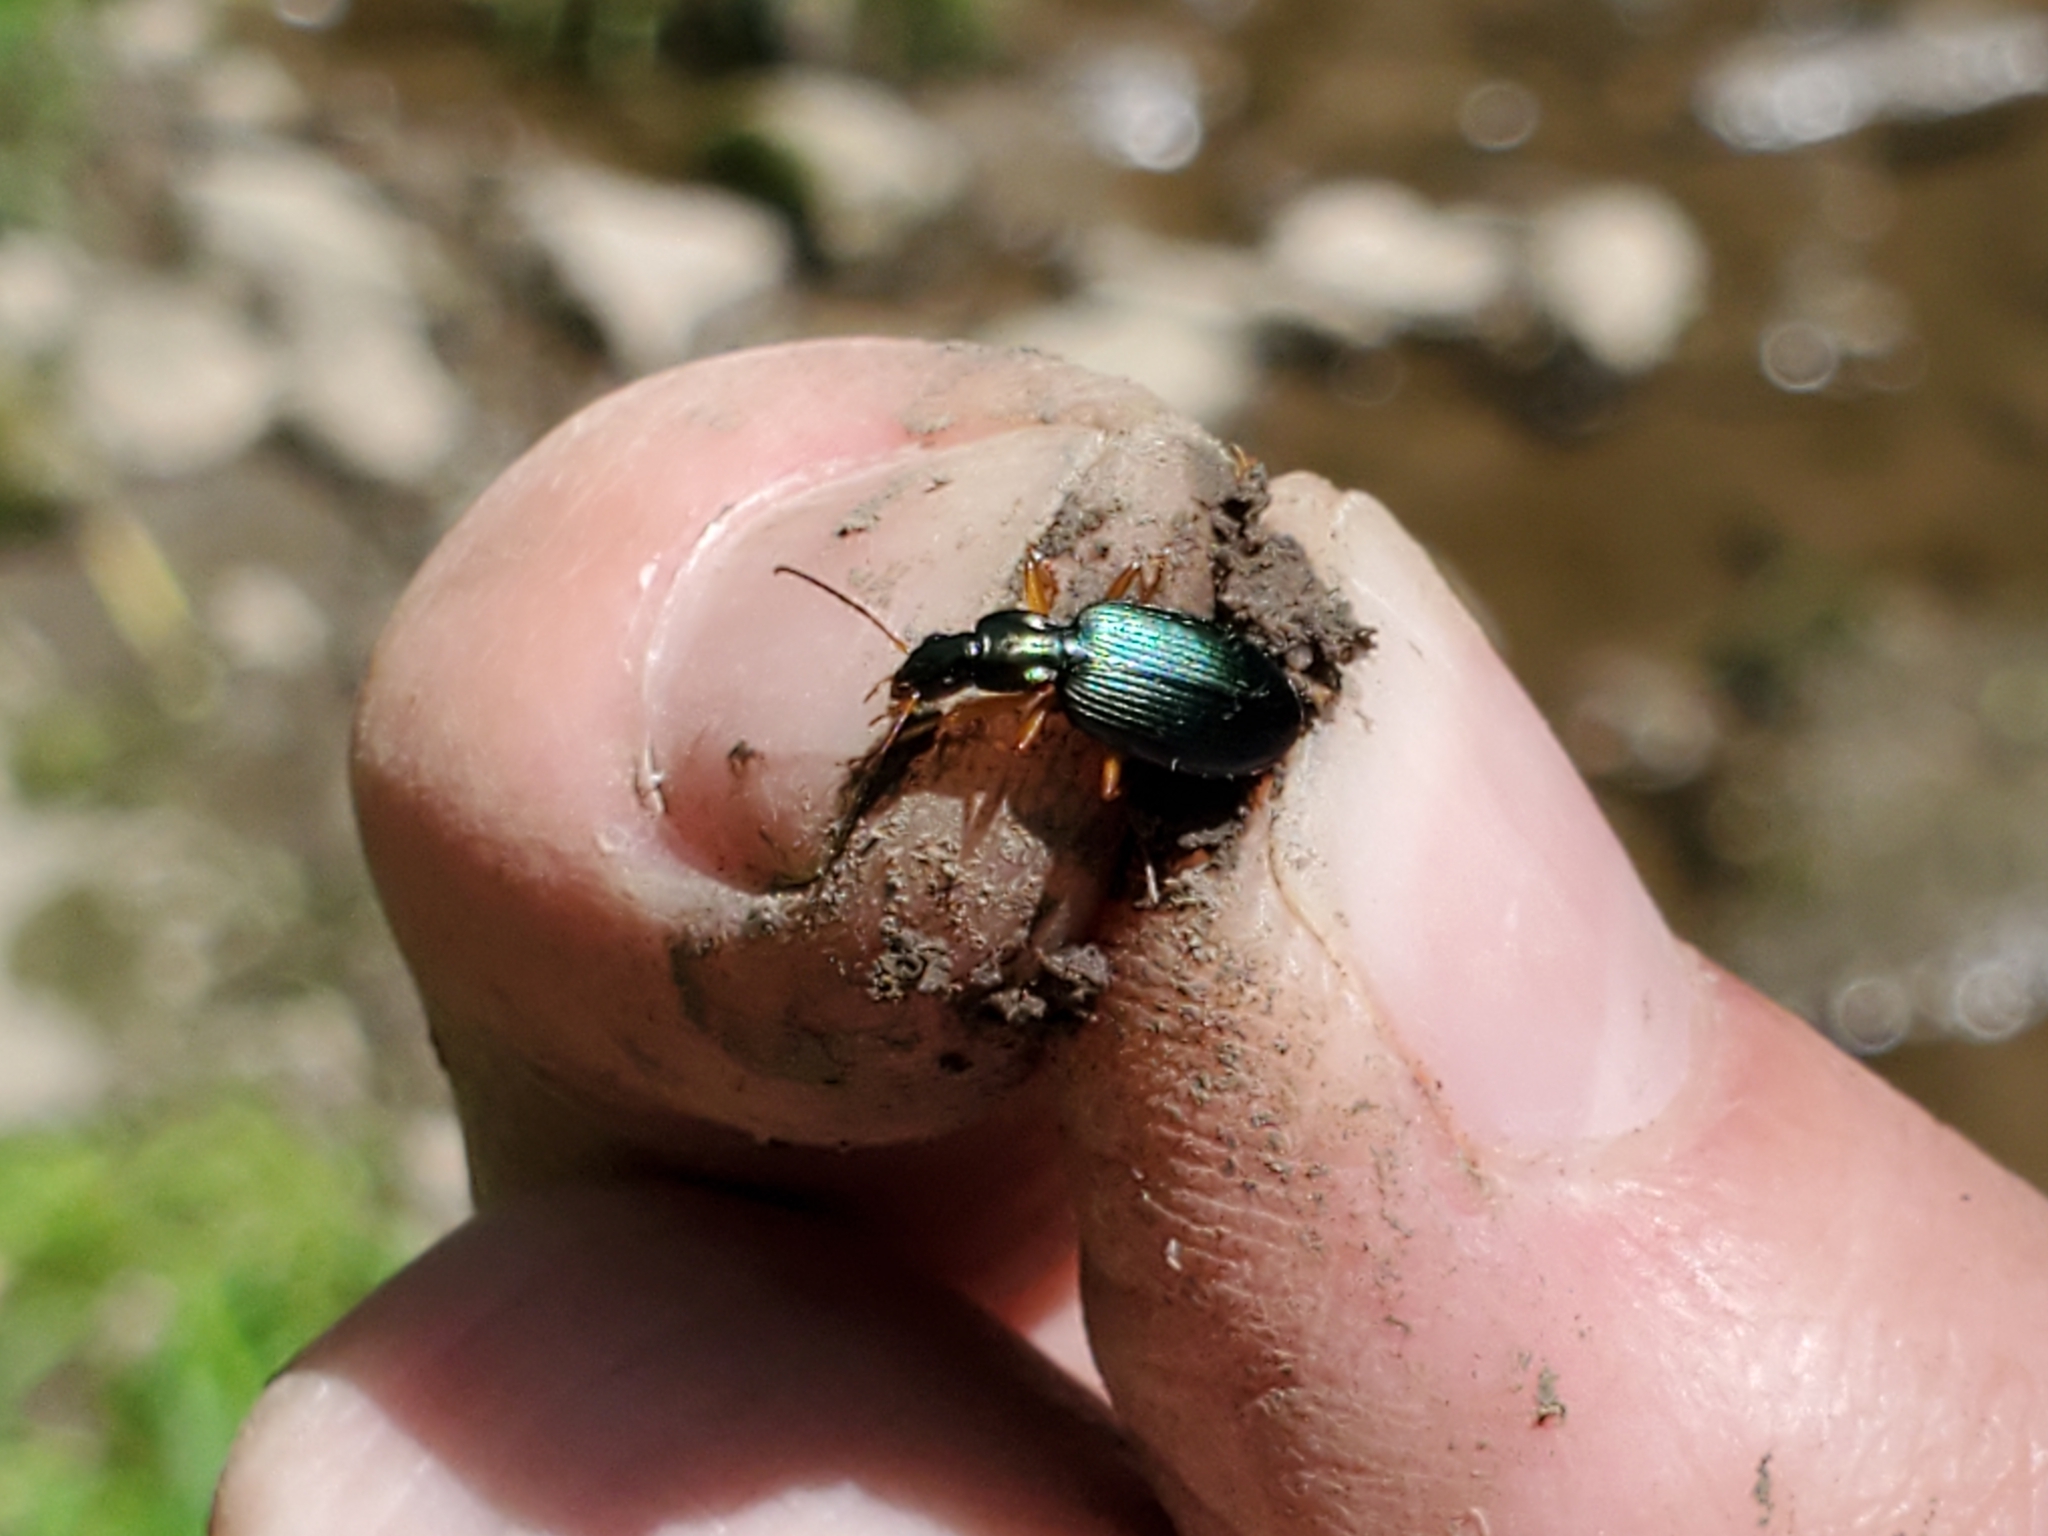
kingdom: Animalia
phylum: Arthropoda
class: Insecta
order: Coleoptera
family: Carabidae
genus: Agonum
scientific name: Agonum extensicolle
